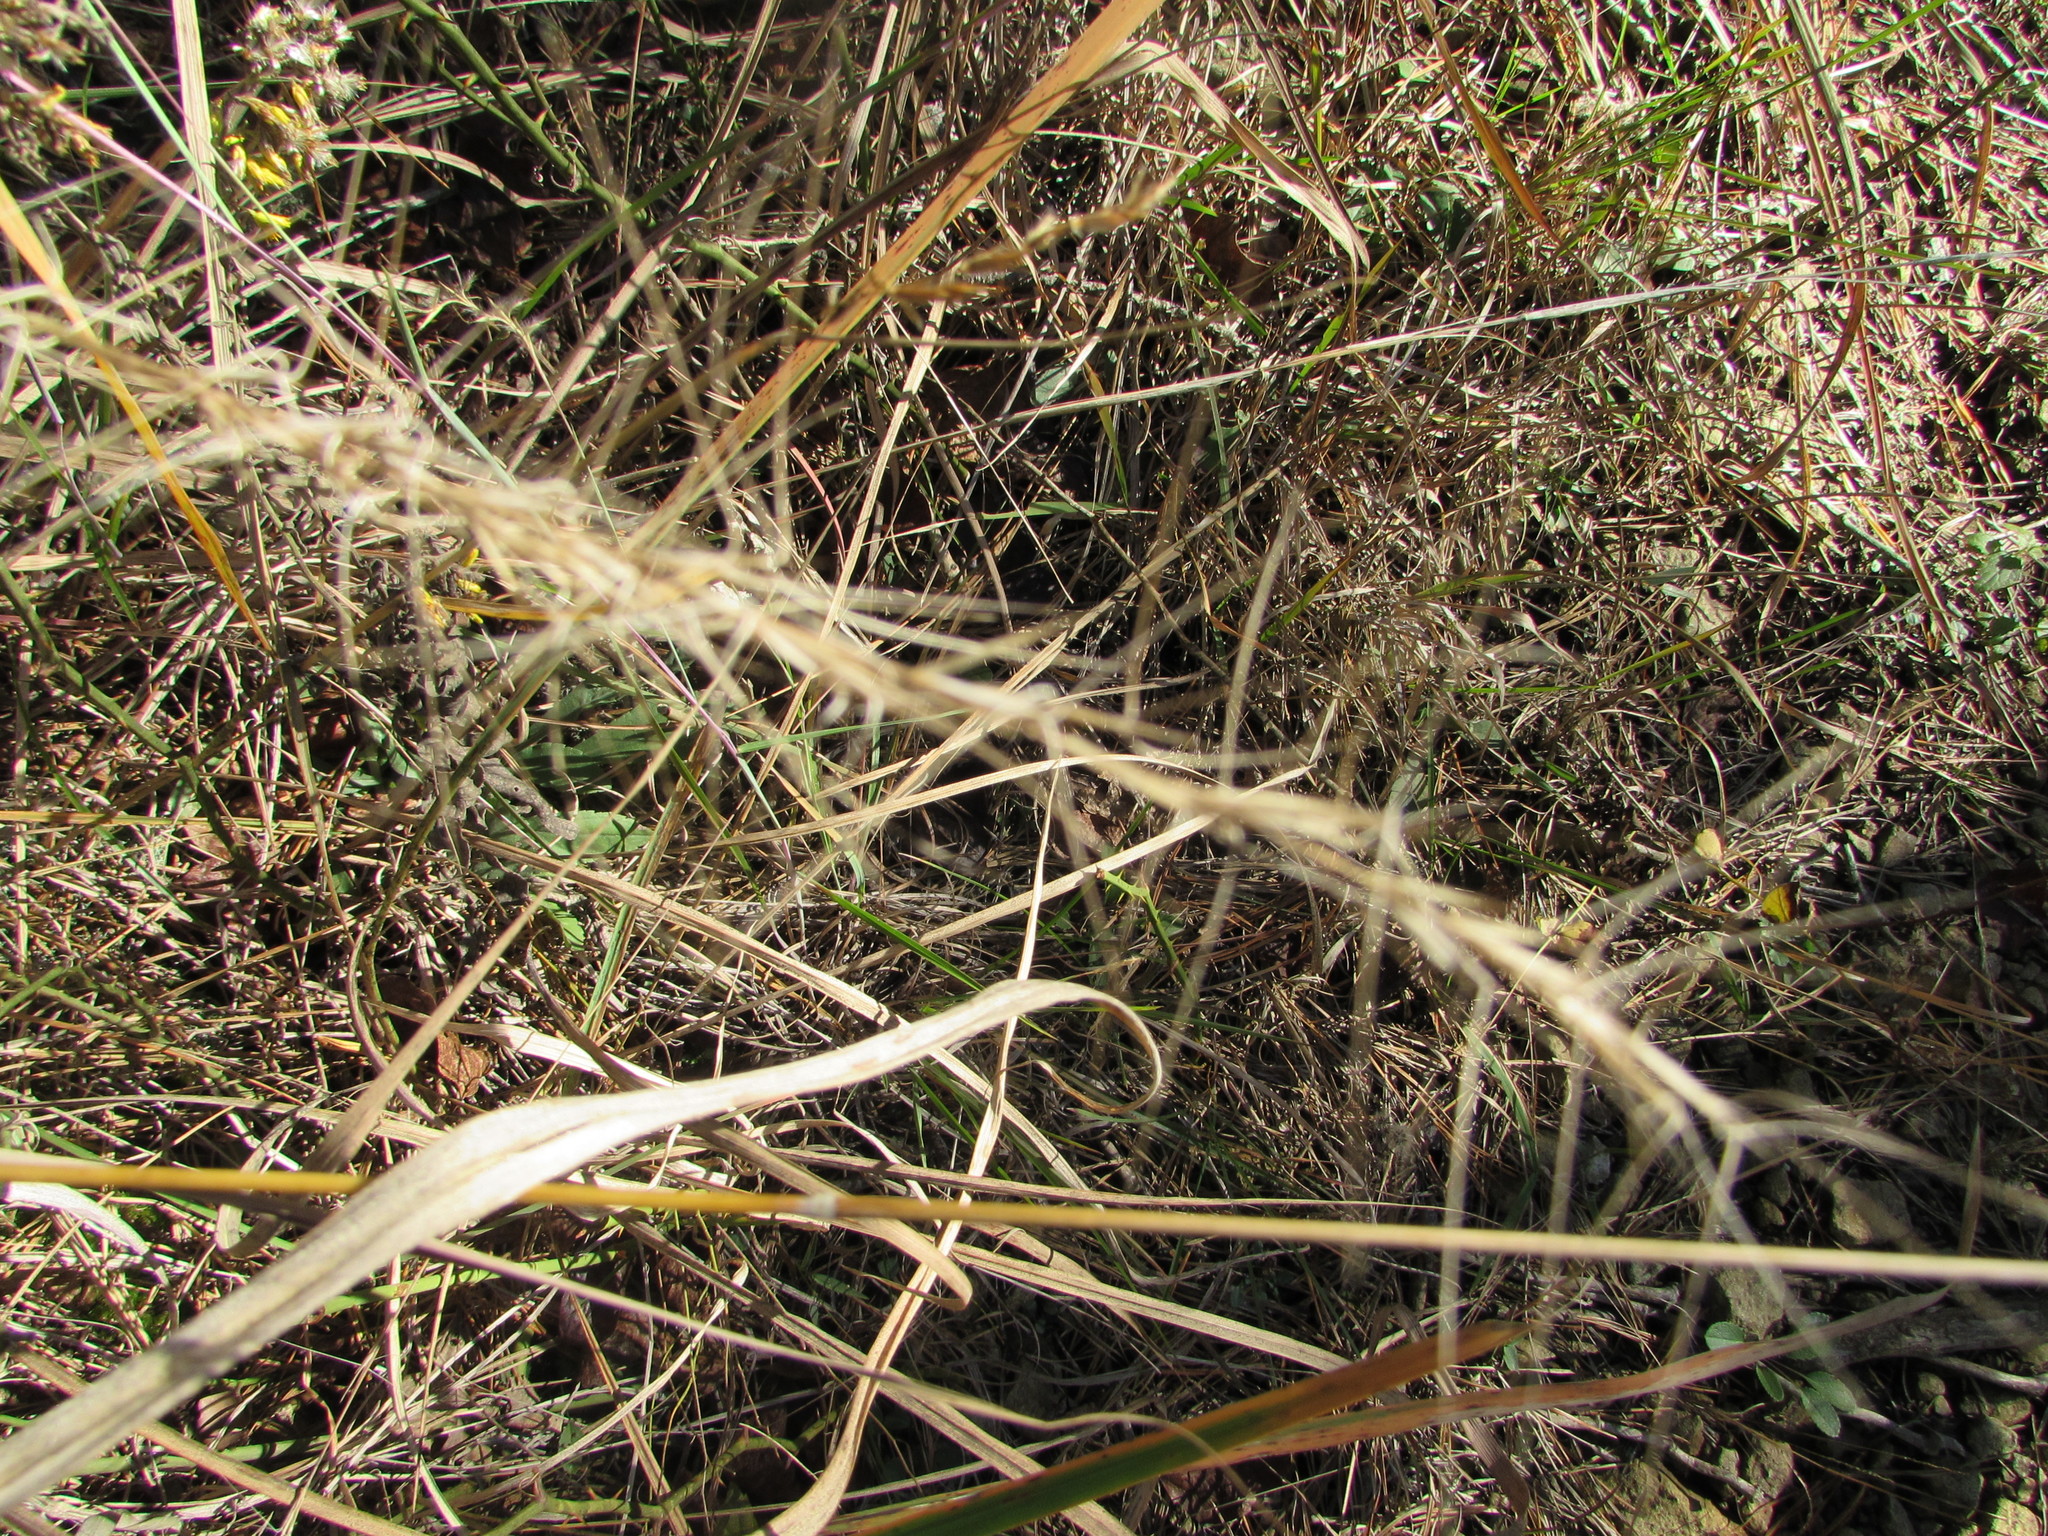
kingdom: Plantae
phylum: Tracheophyta
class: Liliopsida
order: Poales
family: Poaceae
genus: Aristida
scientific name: Aristida purpurascens
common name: Arrow-feather
